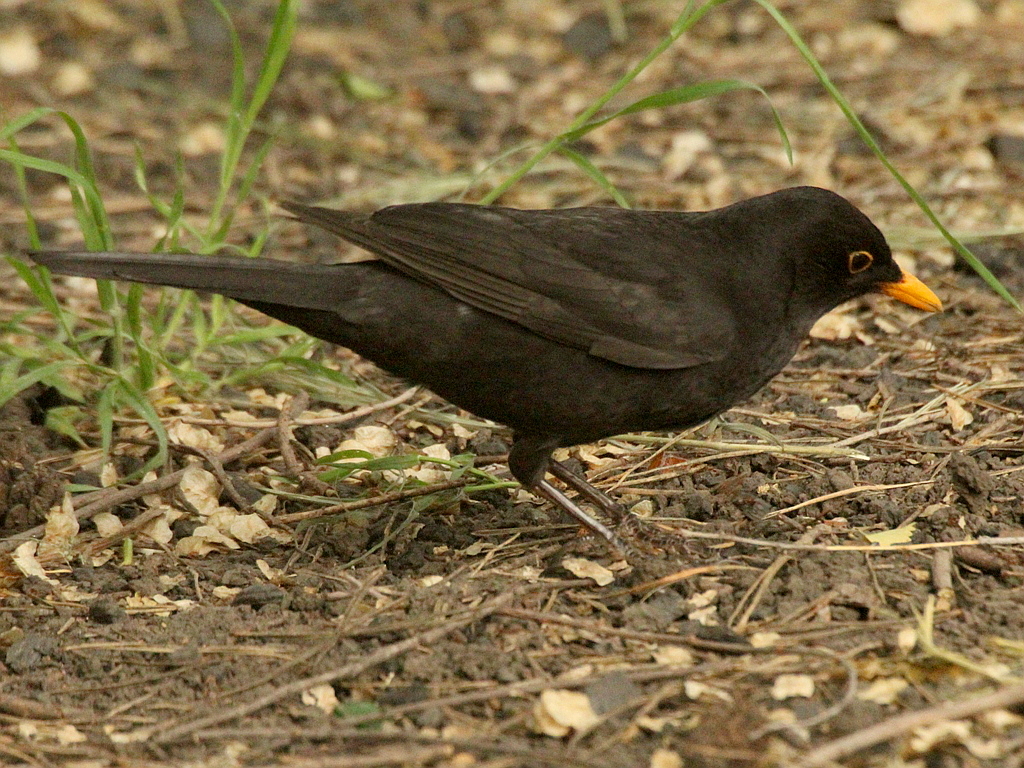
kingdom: Animalia
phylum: Chordata
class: Aves
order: Passeriformes
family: Turdidae
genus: Turdus
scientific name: Turdus merula
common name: Common blackbird
